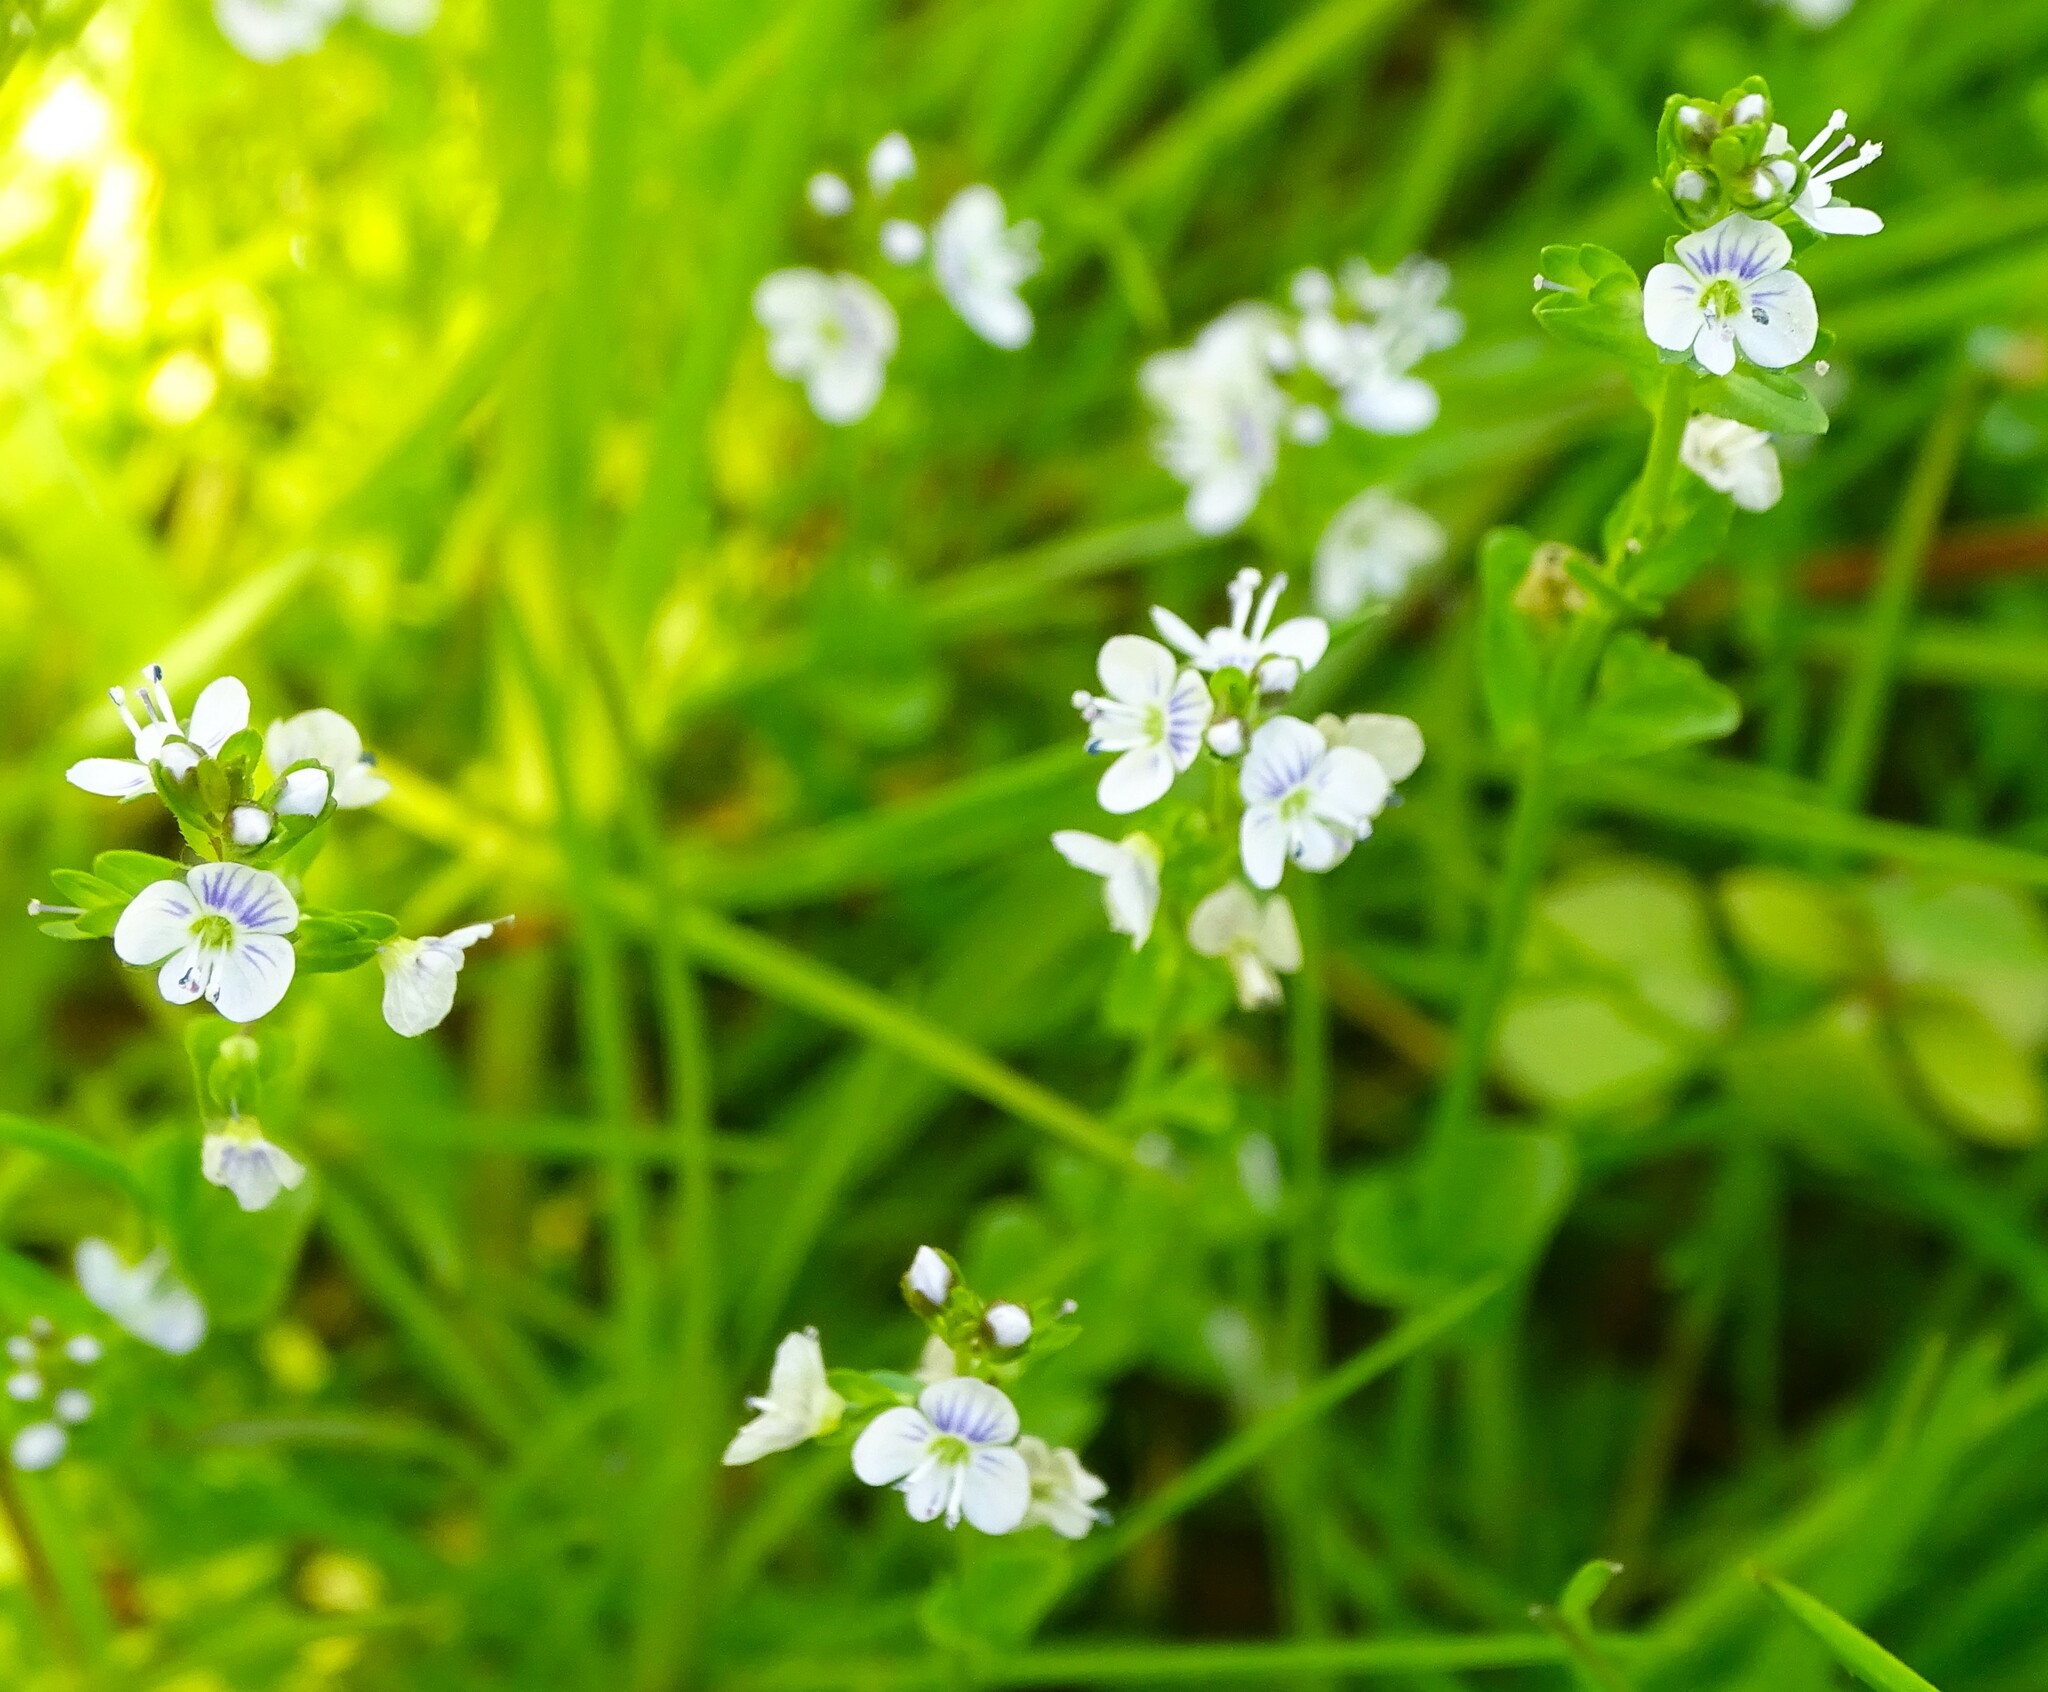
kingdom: Plantae
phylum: Tracheophyta
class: Magnoliopsida
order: Lamiales
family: Plantaginaceae
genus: Veronica
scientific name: Veronica serpyllifolia
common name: Thyme-leaved speedwell
